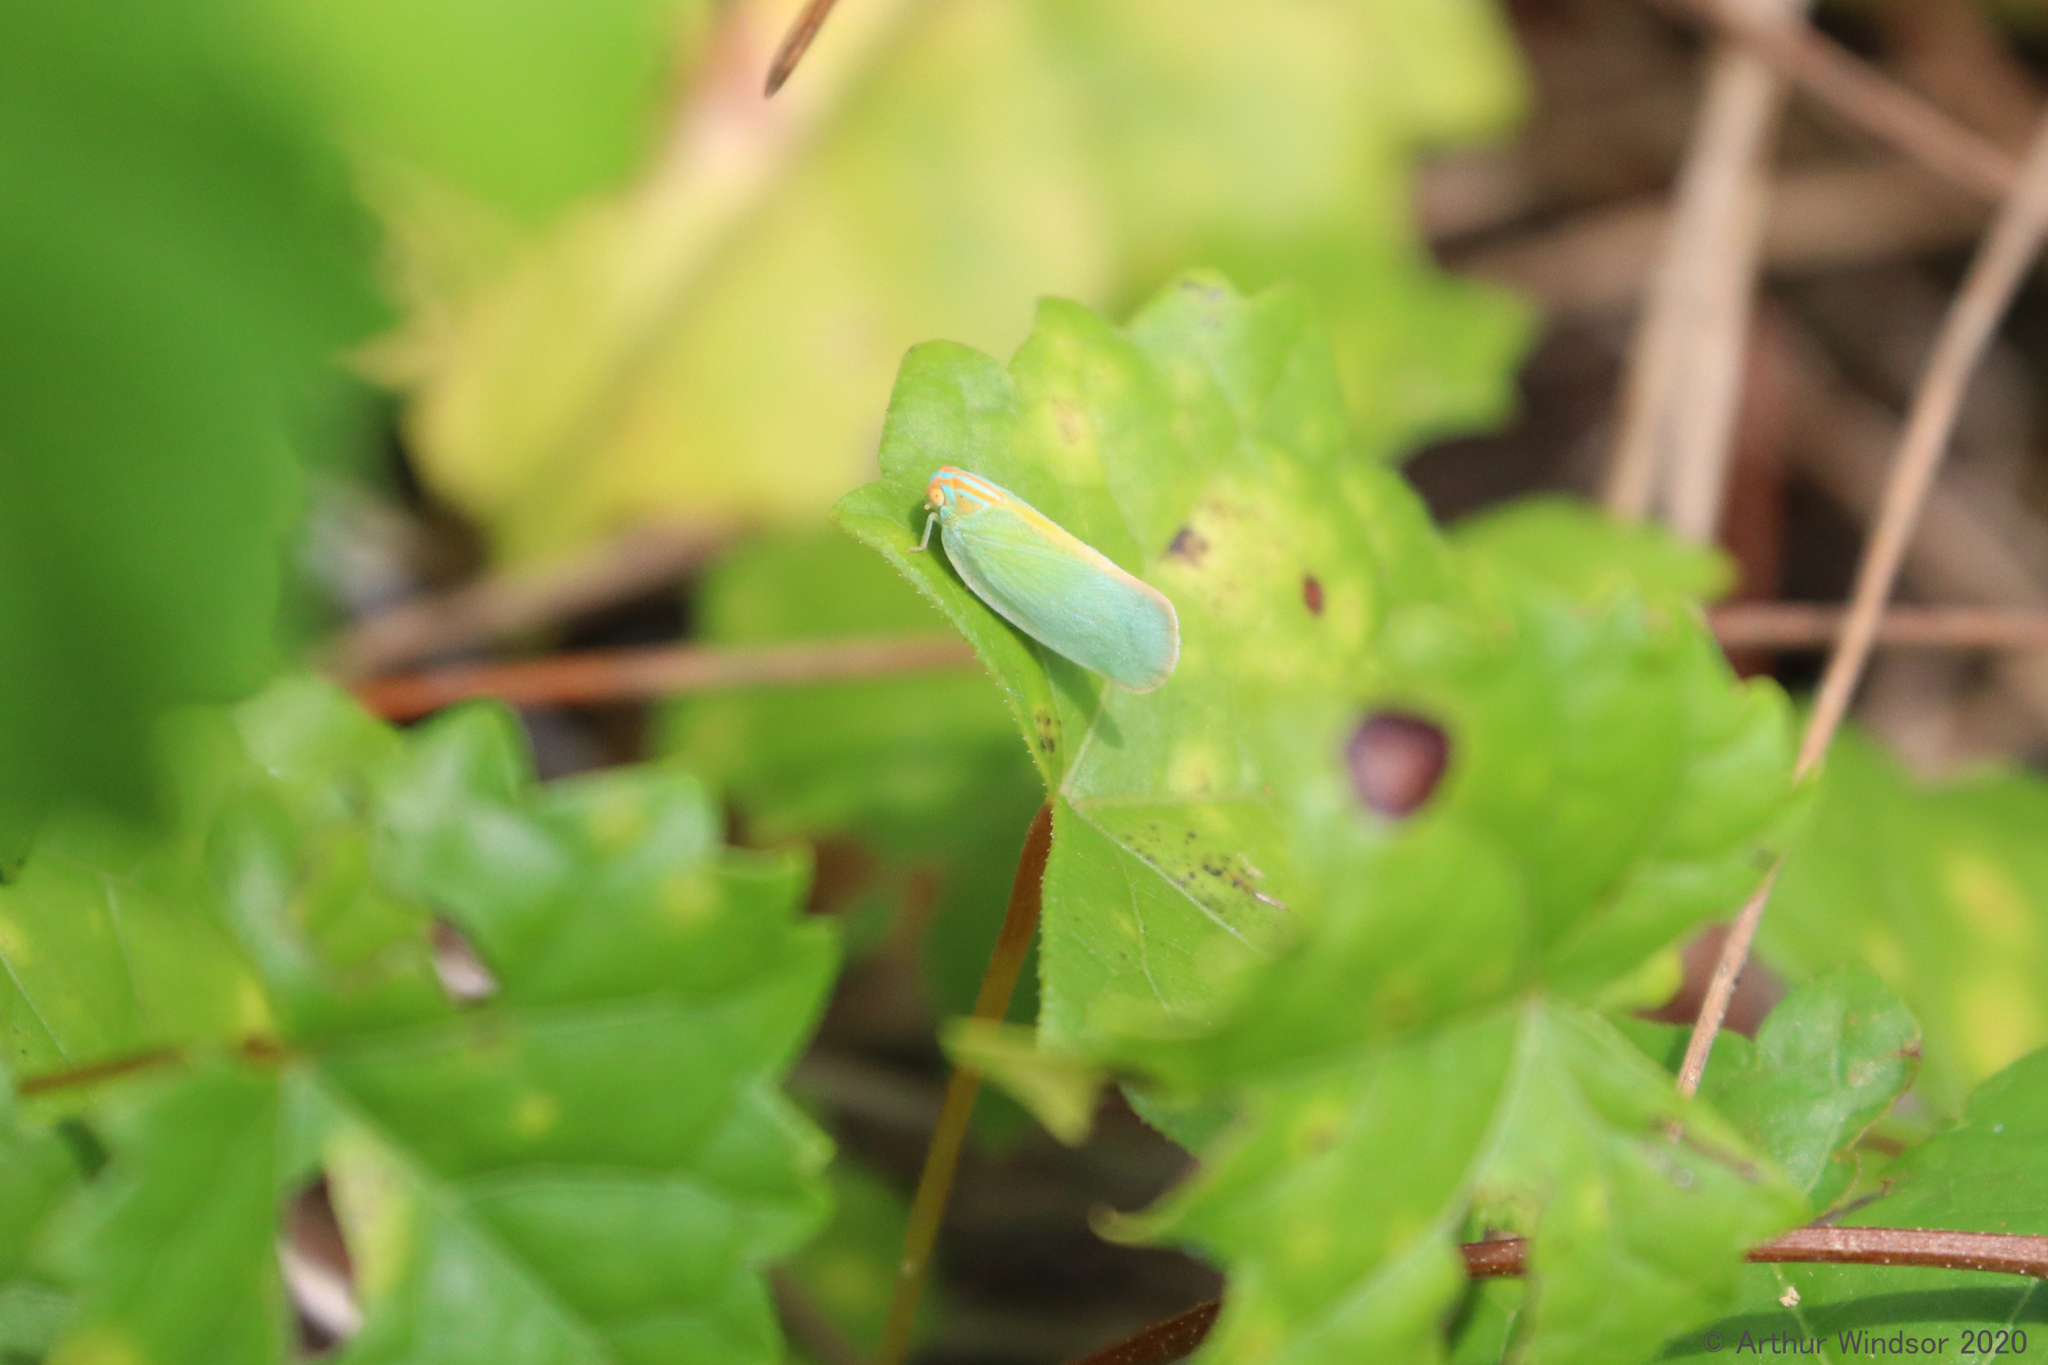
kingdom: Animalia
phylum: Arthropoda
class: Insecta
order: Hemiptera
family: Flatidae
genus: Ormenaria
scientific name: Ormenaria rufifascia
